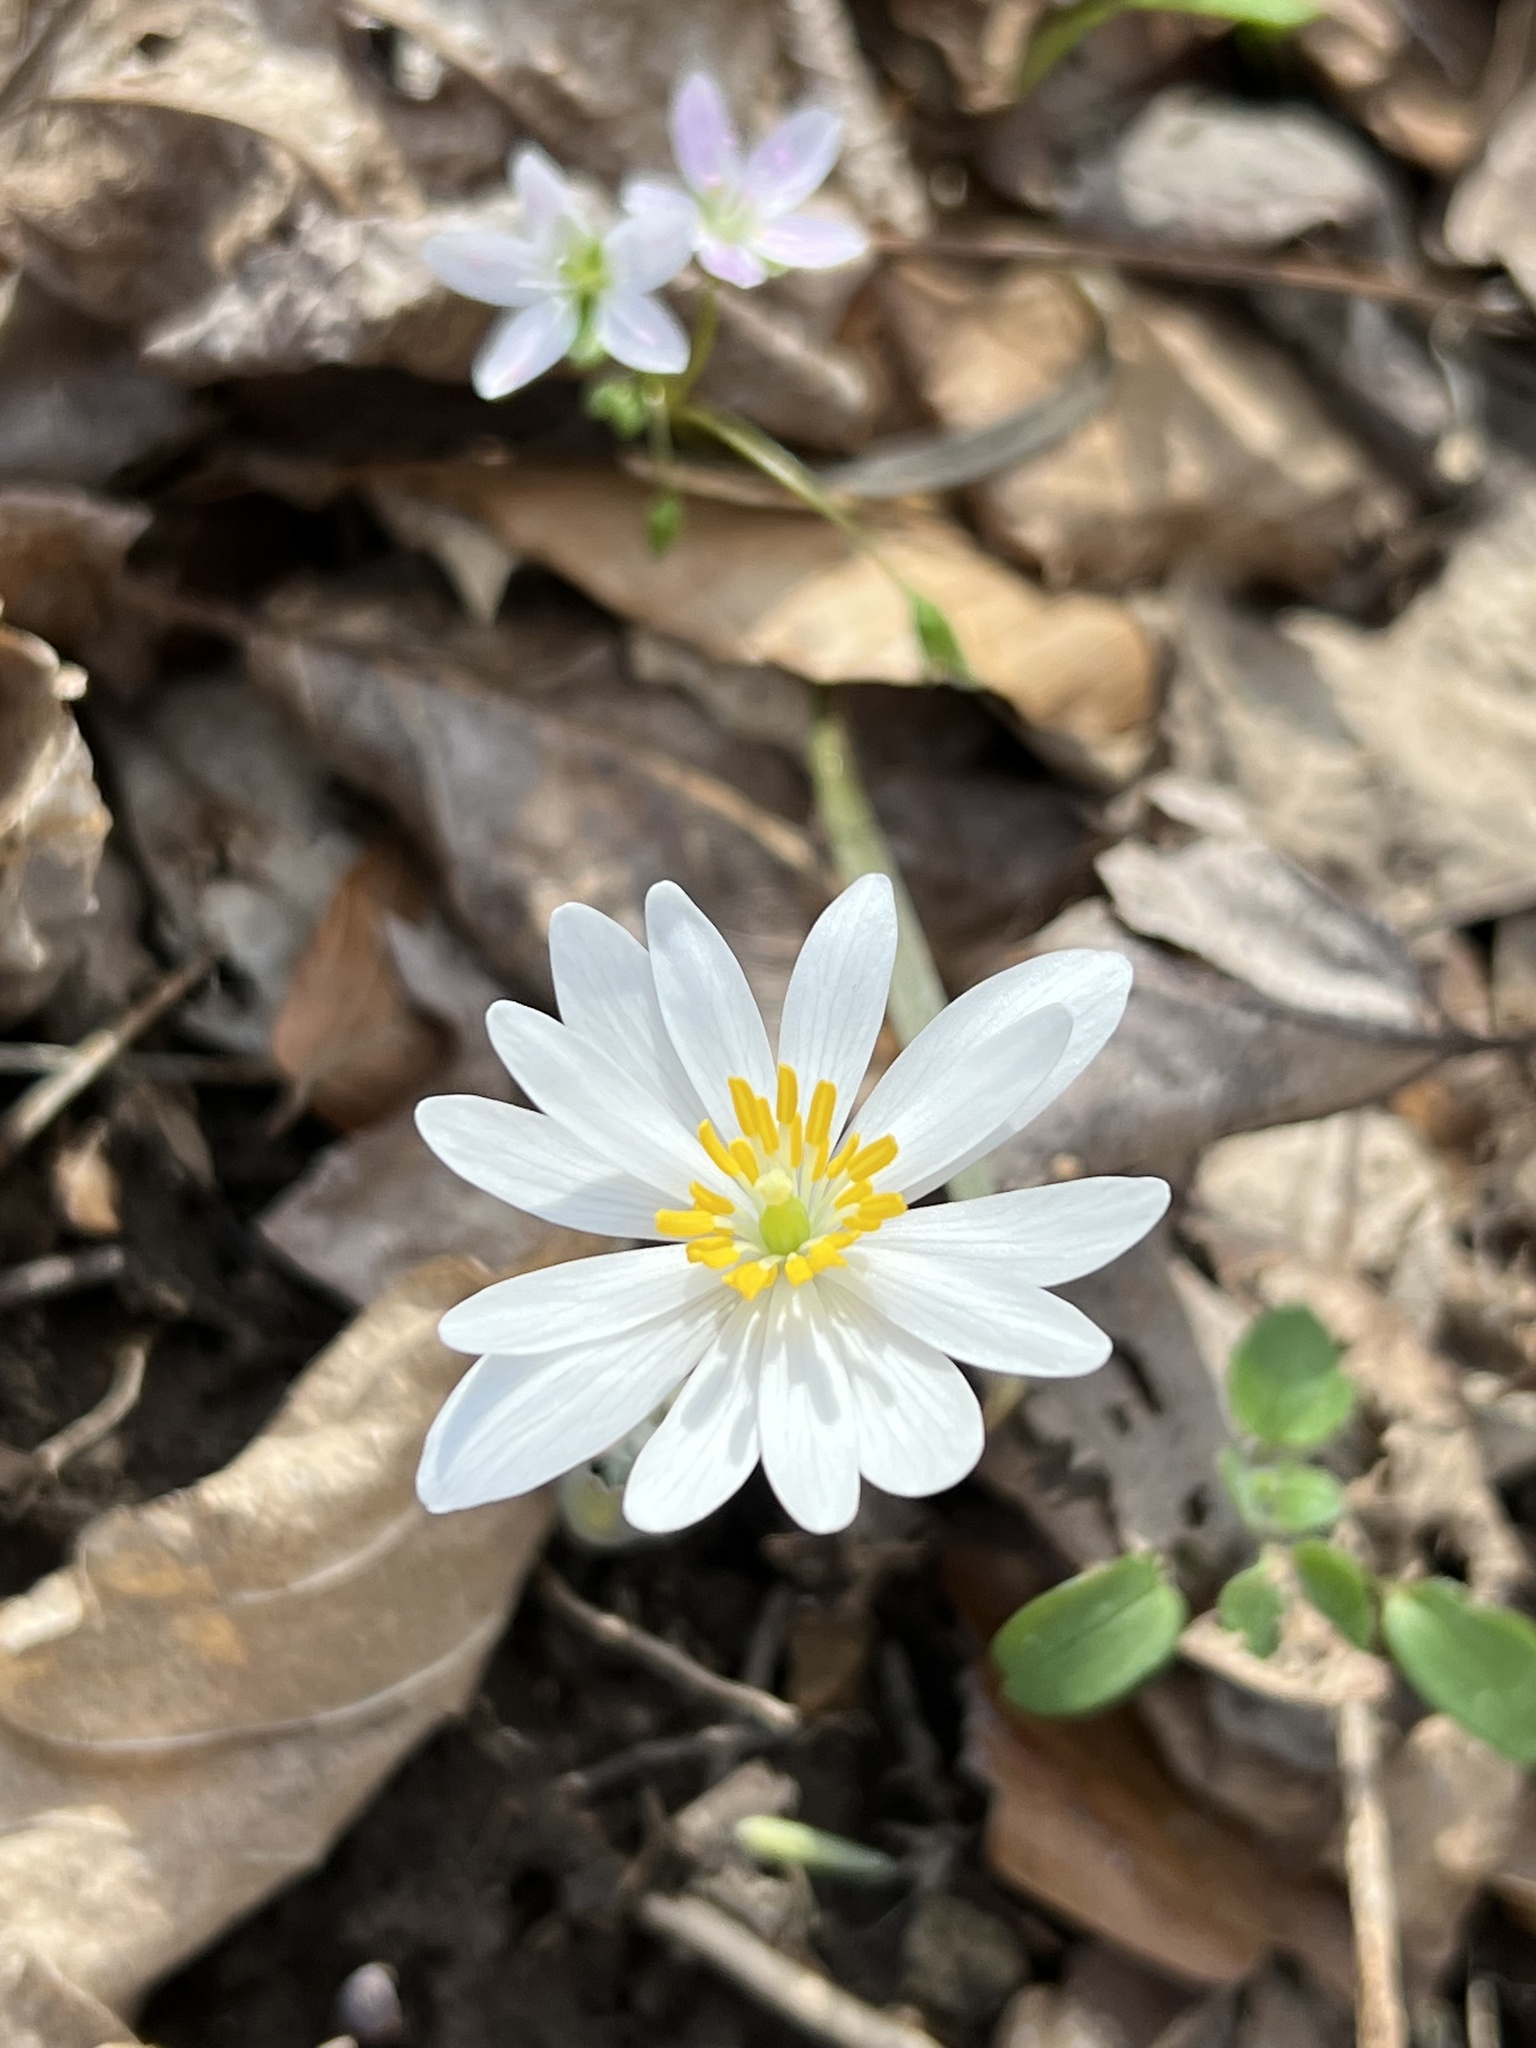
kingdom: Plantae
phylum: Tracheophyta
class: Magnoliopsida
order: Ranunculales
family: Papaveraceae
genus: Sanguinaria
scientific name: Sanguinaria canadensis
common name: Bloodroot
